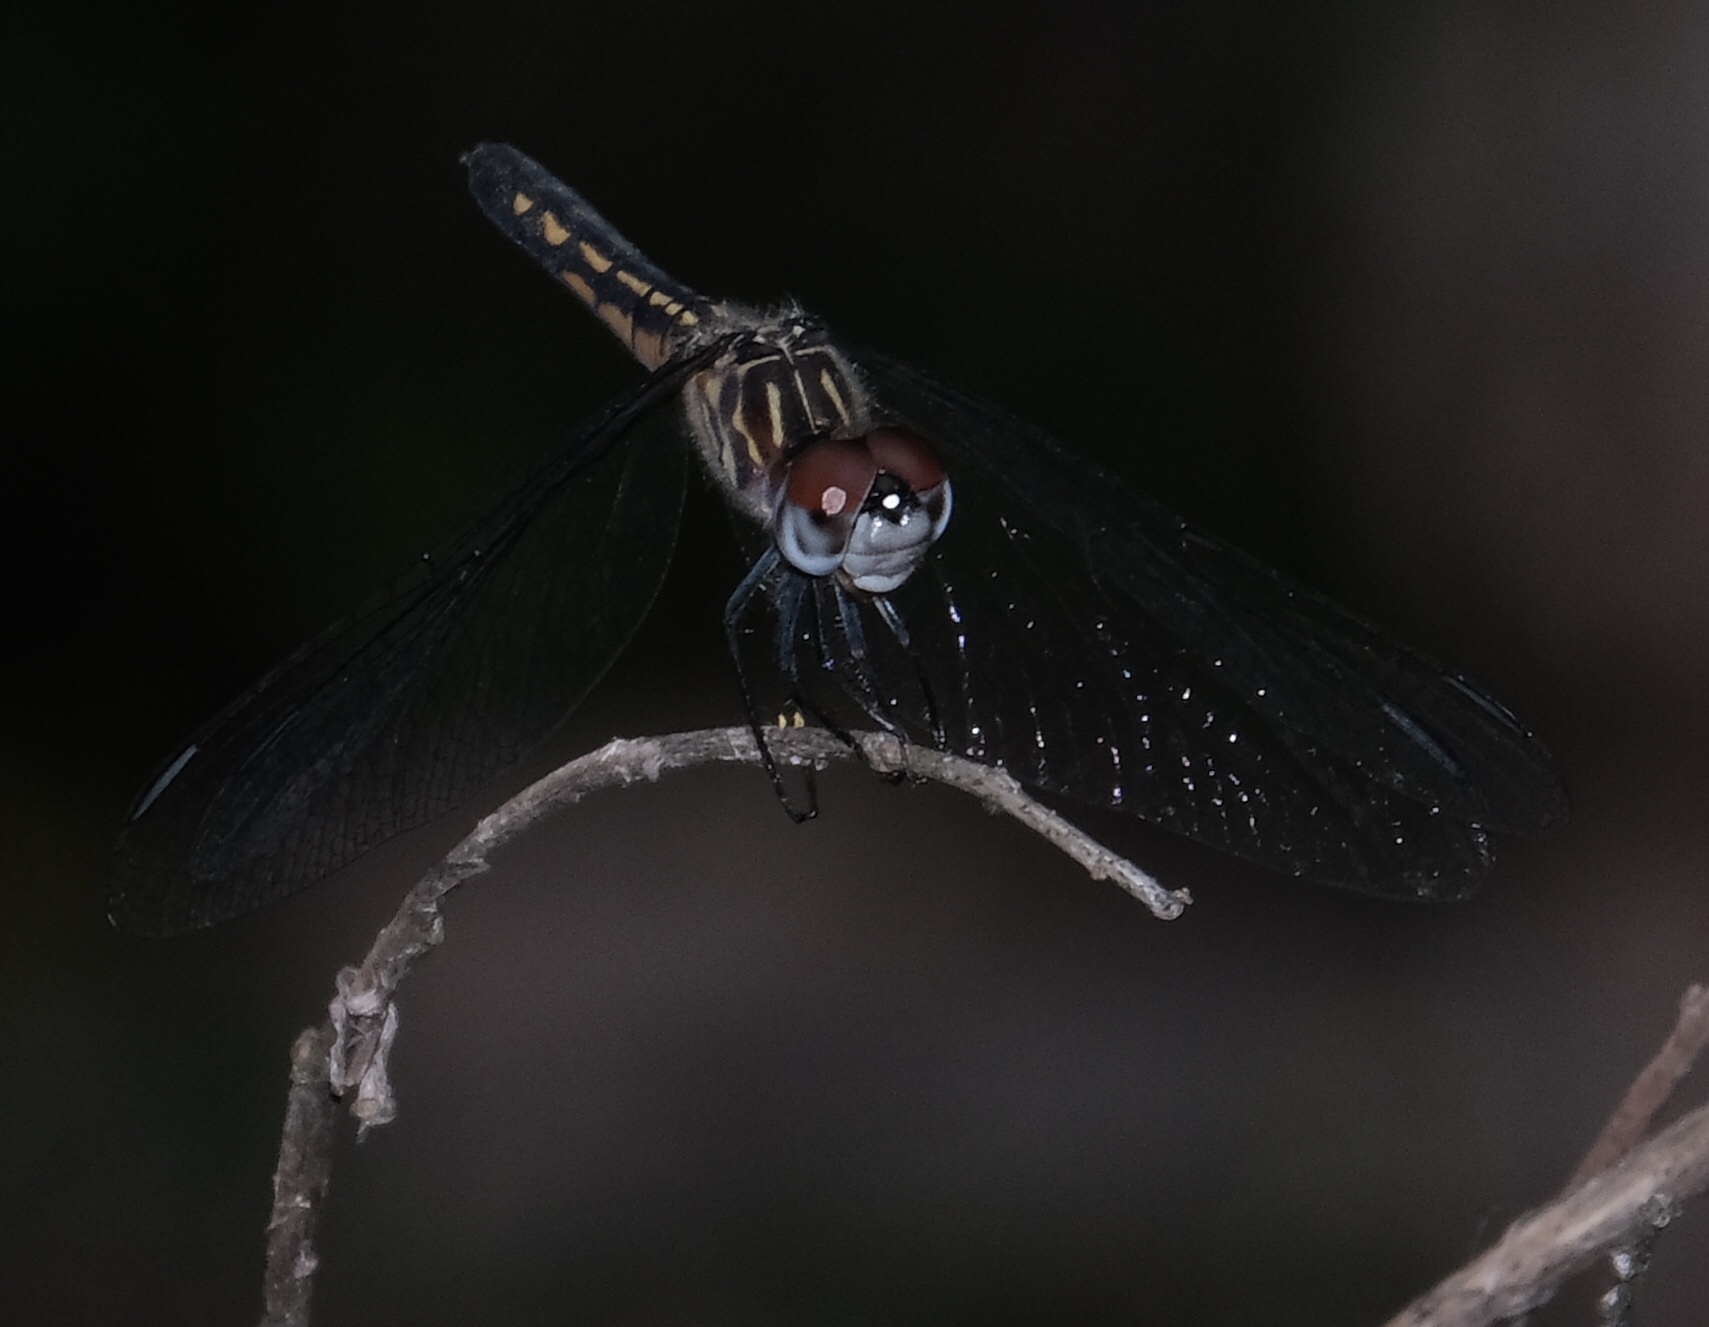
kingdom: Animalia
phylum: Arthropoda
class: Insecta
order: Odonata
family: Libellulidae
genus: Pachydiplax
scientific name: Pachydiplax longipennis
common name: Blue dasher
